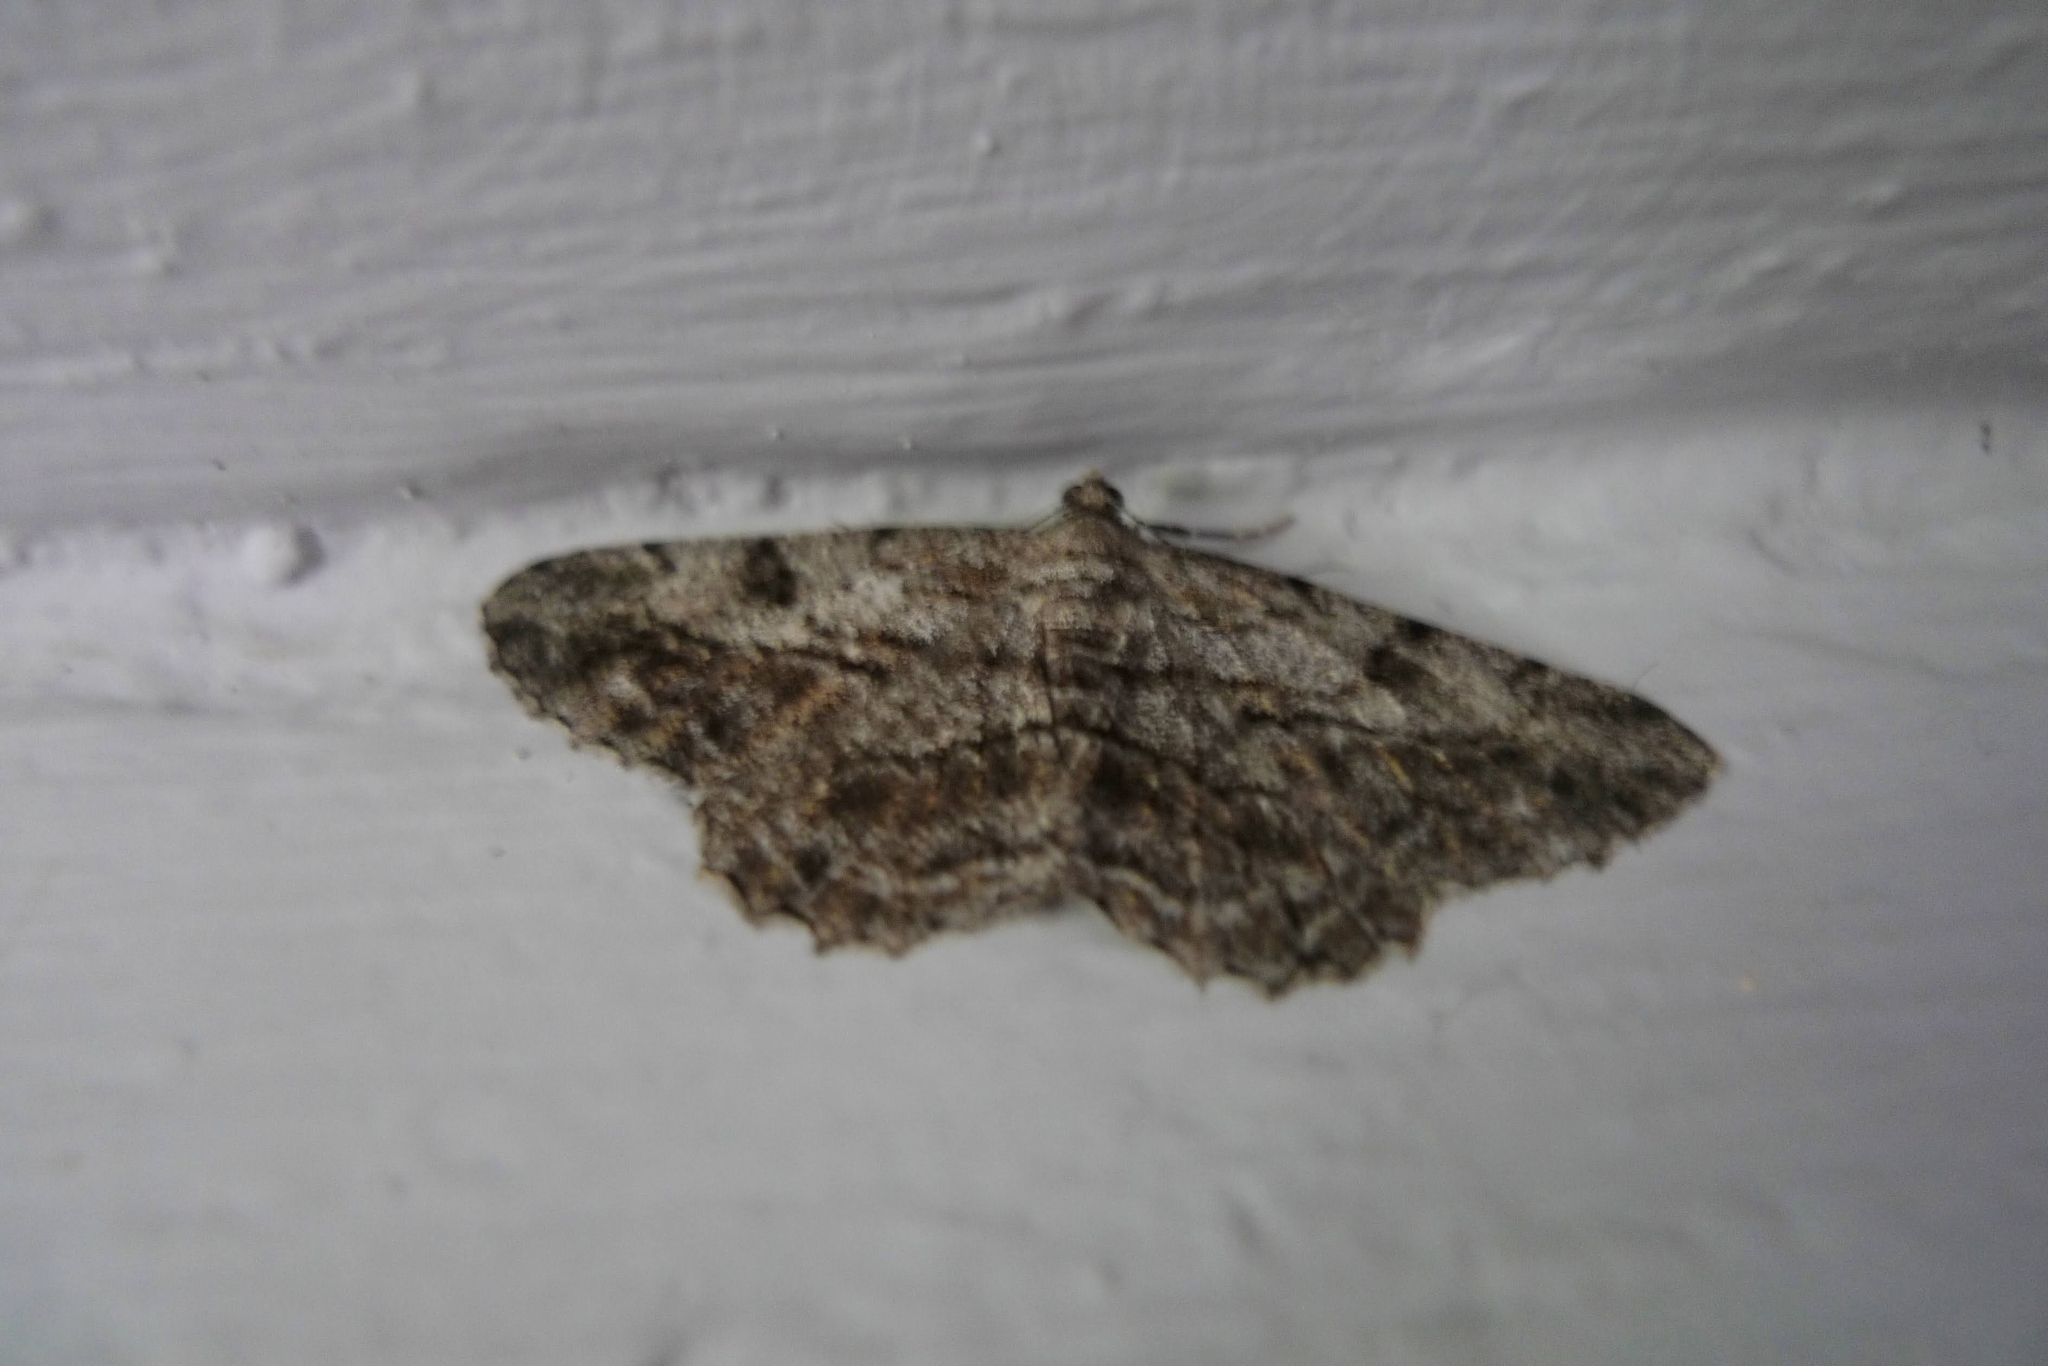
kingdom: Animalia
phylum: Arthropoda
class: Insecta
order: Lepidoptera
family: Geometridae
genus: Peribatodes
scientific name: Peribatodes rhomboidaria
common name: Willow beauty
